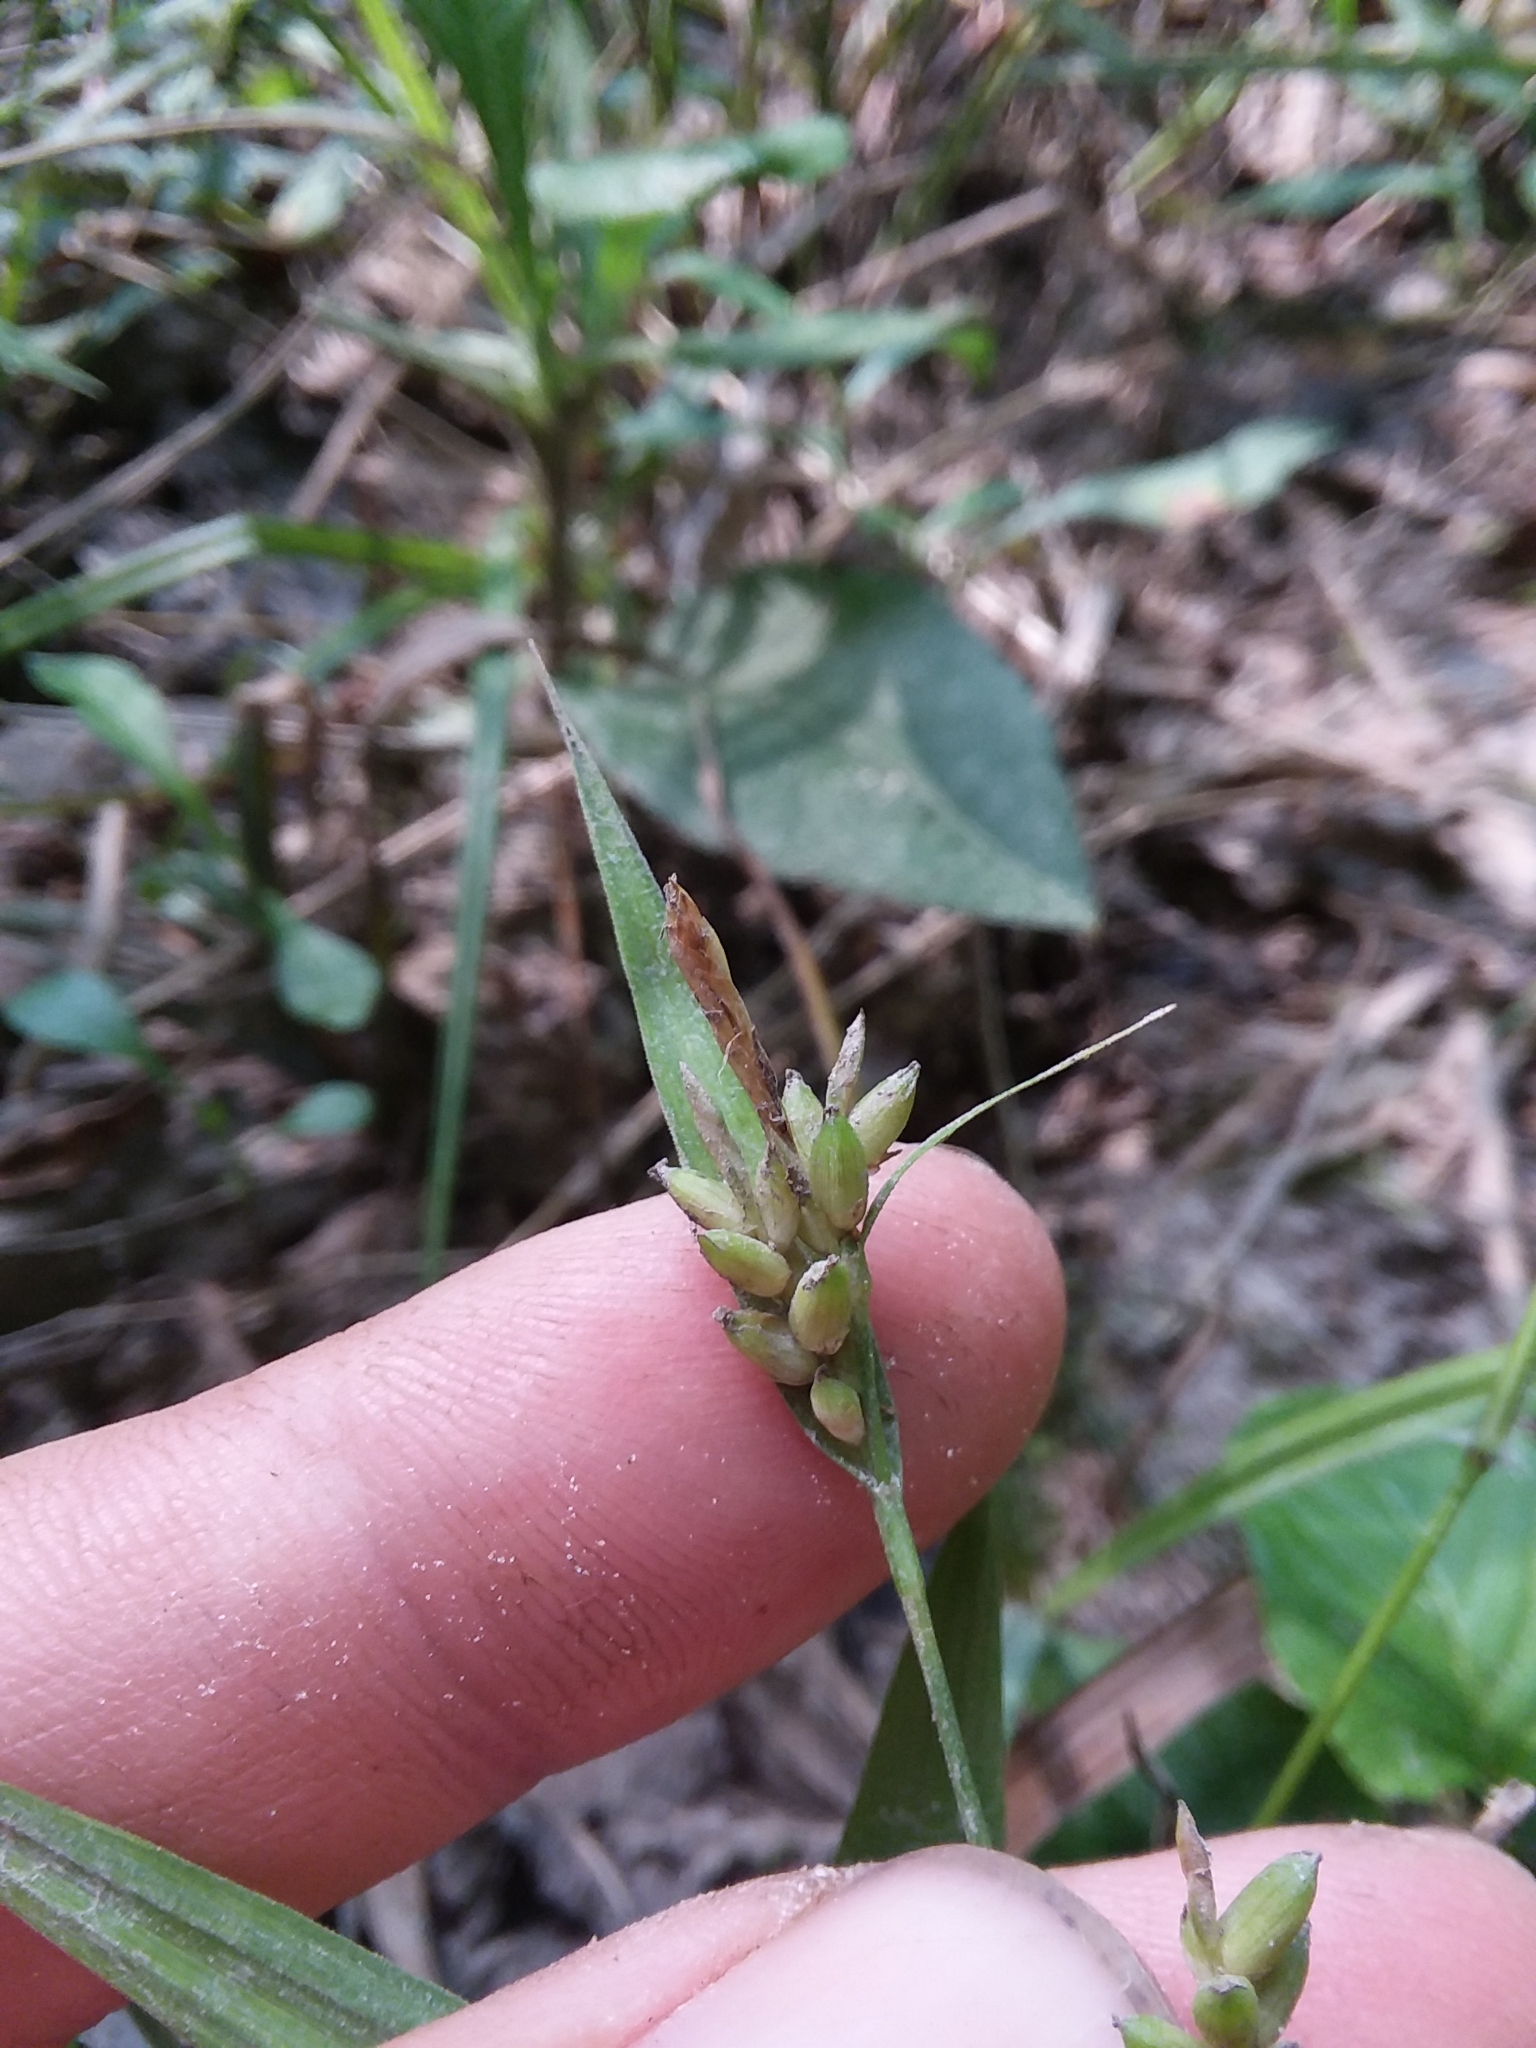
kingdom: Plantae
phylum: Tracheophyta
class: Liliopsida
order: Poales
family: Cyperaceae
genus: Carex
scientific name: Carex flaccosperma
